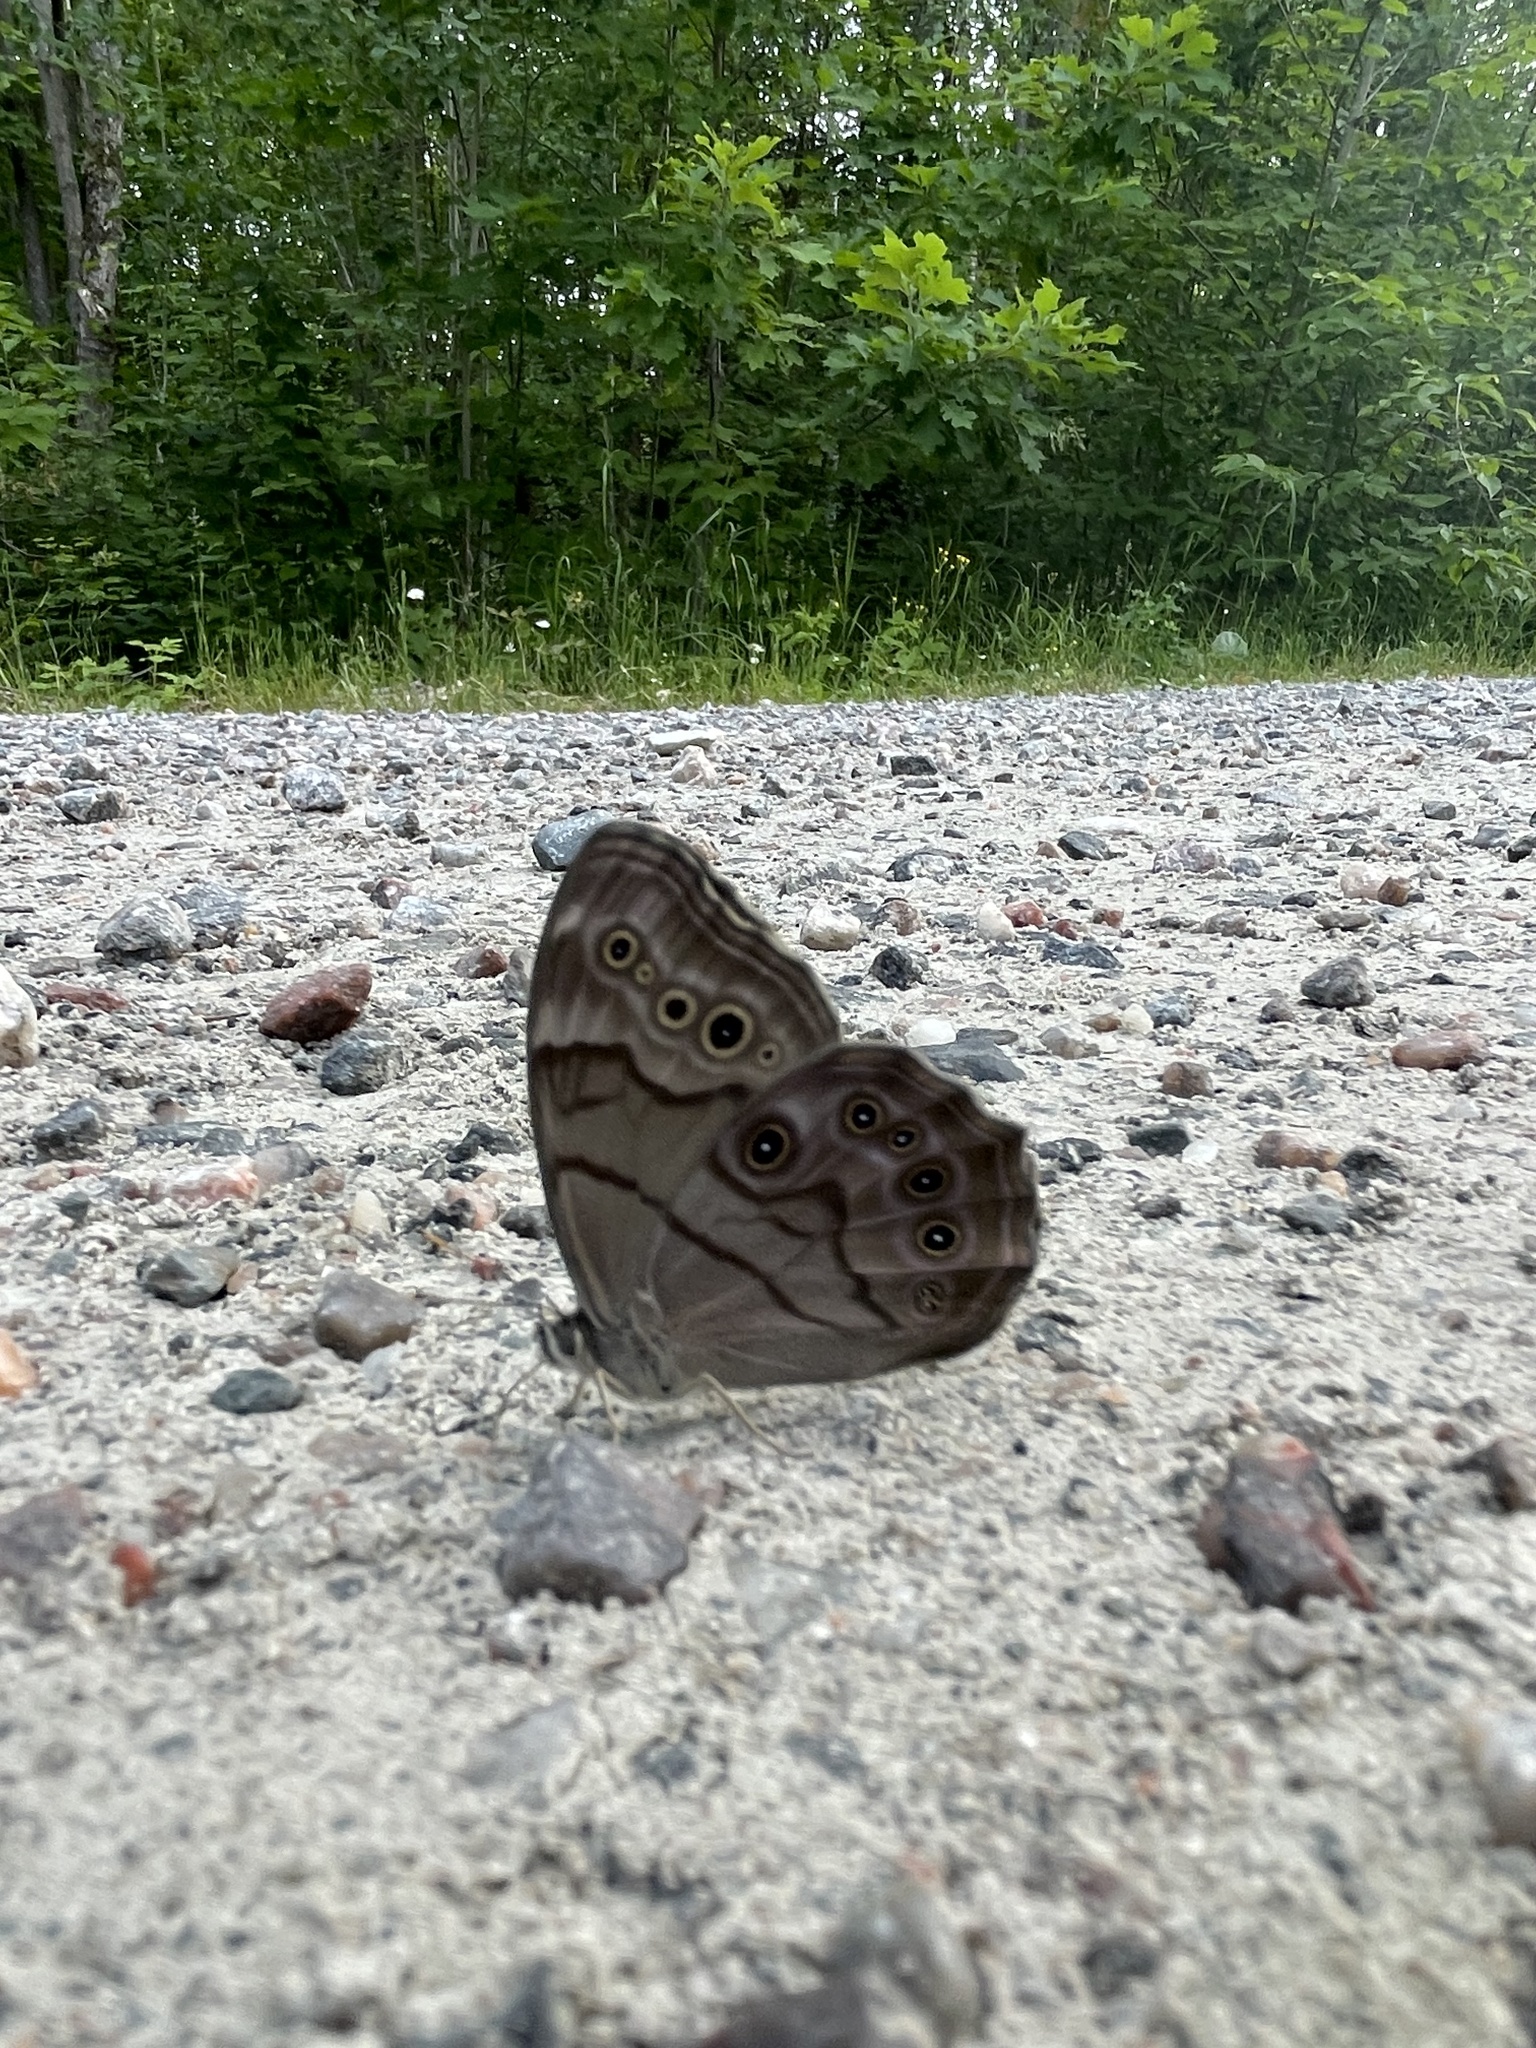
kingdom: Animalia
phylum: Arthropoda
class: Insecta
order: Lepidoptera
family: Nymphalidae
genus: Lethe
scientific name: Lethe anthedon
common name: Northern pearly-eye
